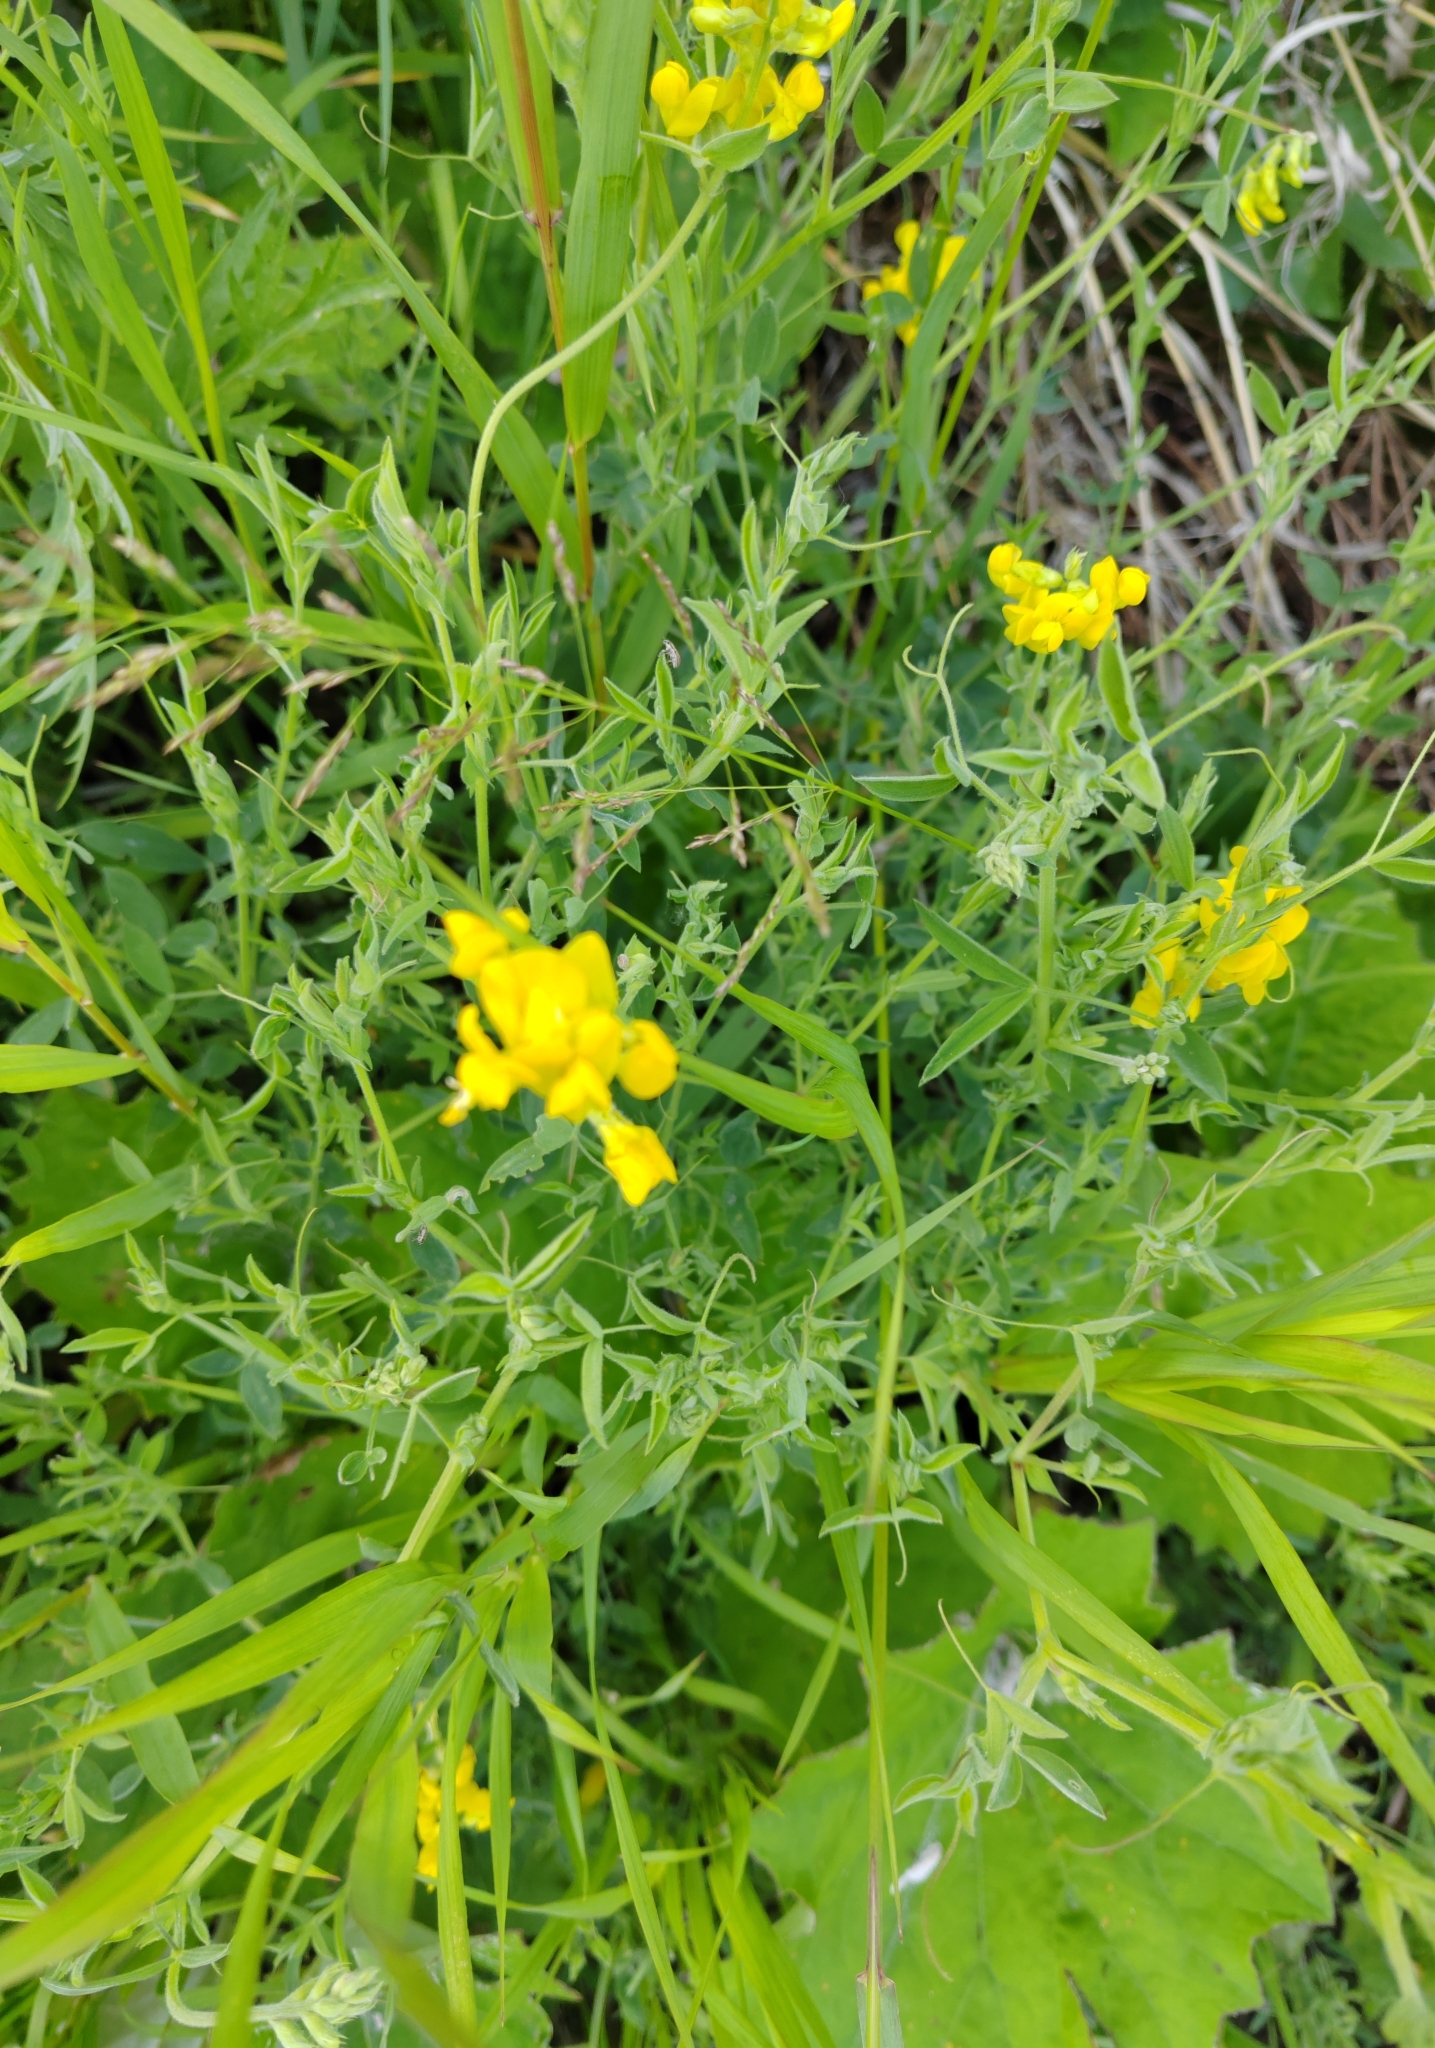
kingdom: Plantae
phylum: Tracheophyta
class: Magnoliopsida
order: Fabales
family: Fabaceae
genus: Lathyrus
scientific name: Lathyrus pratensis
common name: Meadow vetchling
